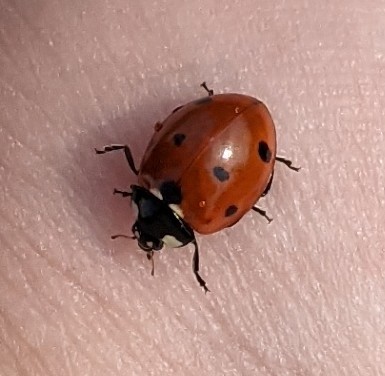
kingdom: Animalia
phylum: Arthropoda
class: Insecta
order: Coleoptera
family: Coccinellidae
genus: Coccinella
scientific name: Coccinella septempunctata
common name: Sevenspotted lady beetle
